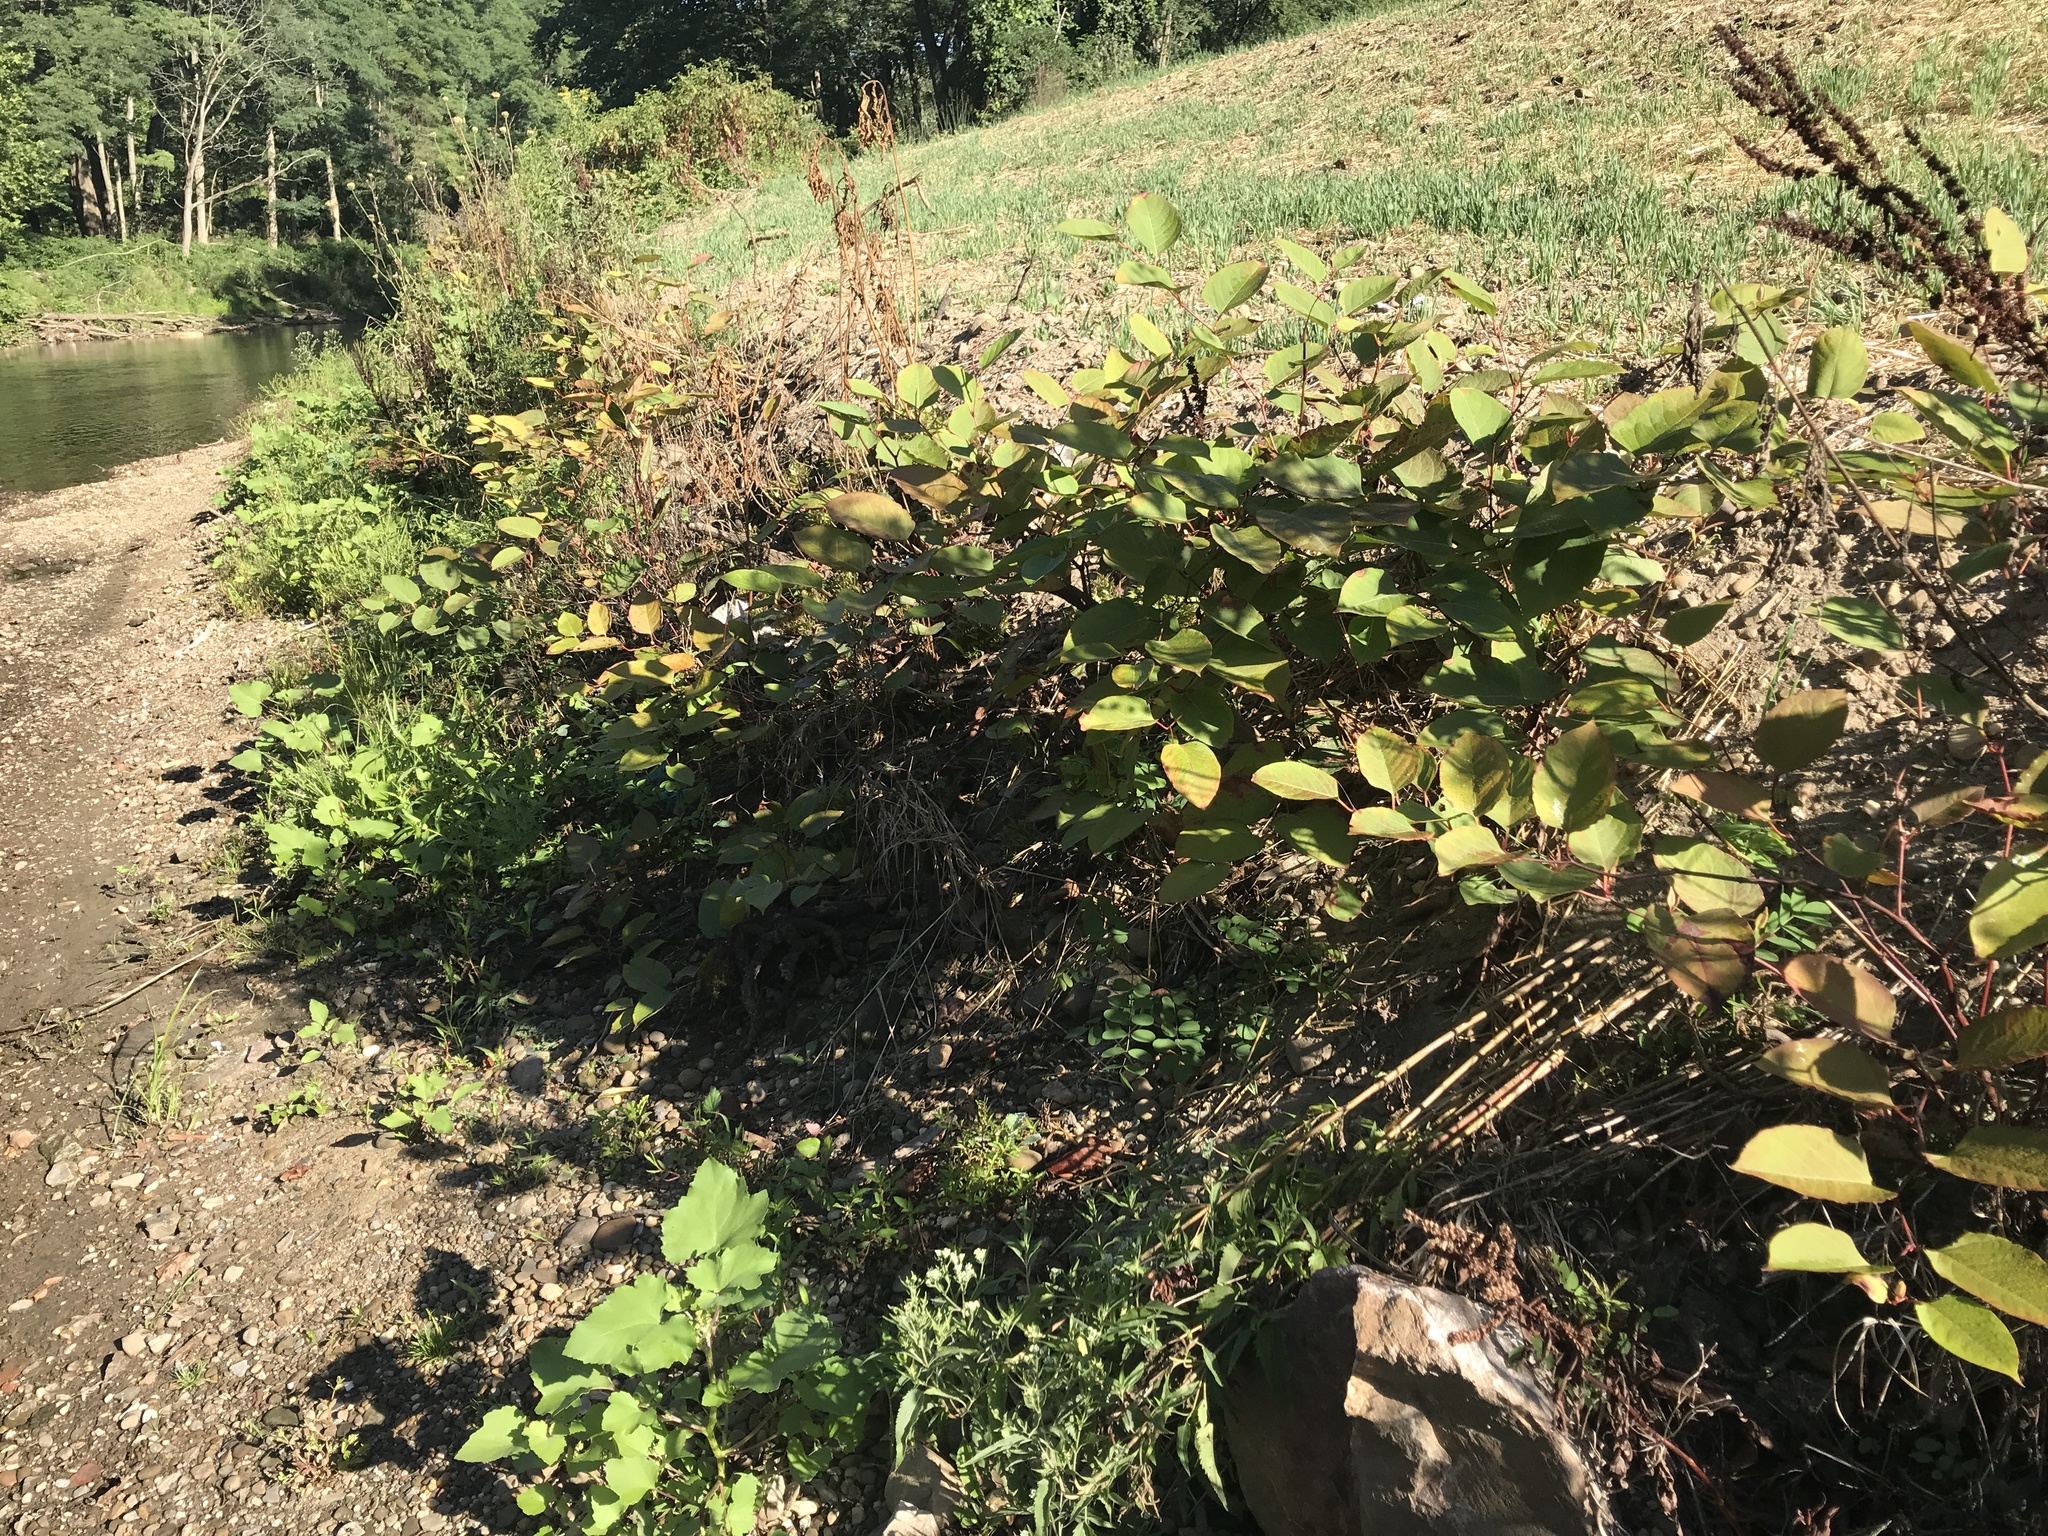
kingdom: Plantae
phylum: Tracheophyta
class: Magnoliopsida
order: Caryophyllales
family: Polygonaceae
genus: Reynoutria
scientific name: Reynoutria japonica
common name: Japanese knotweed
